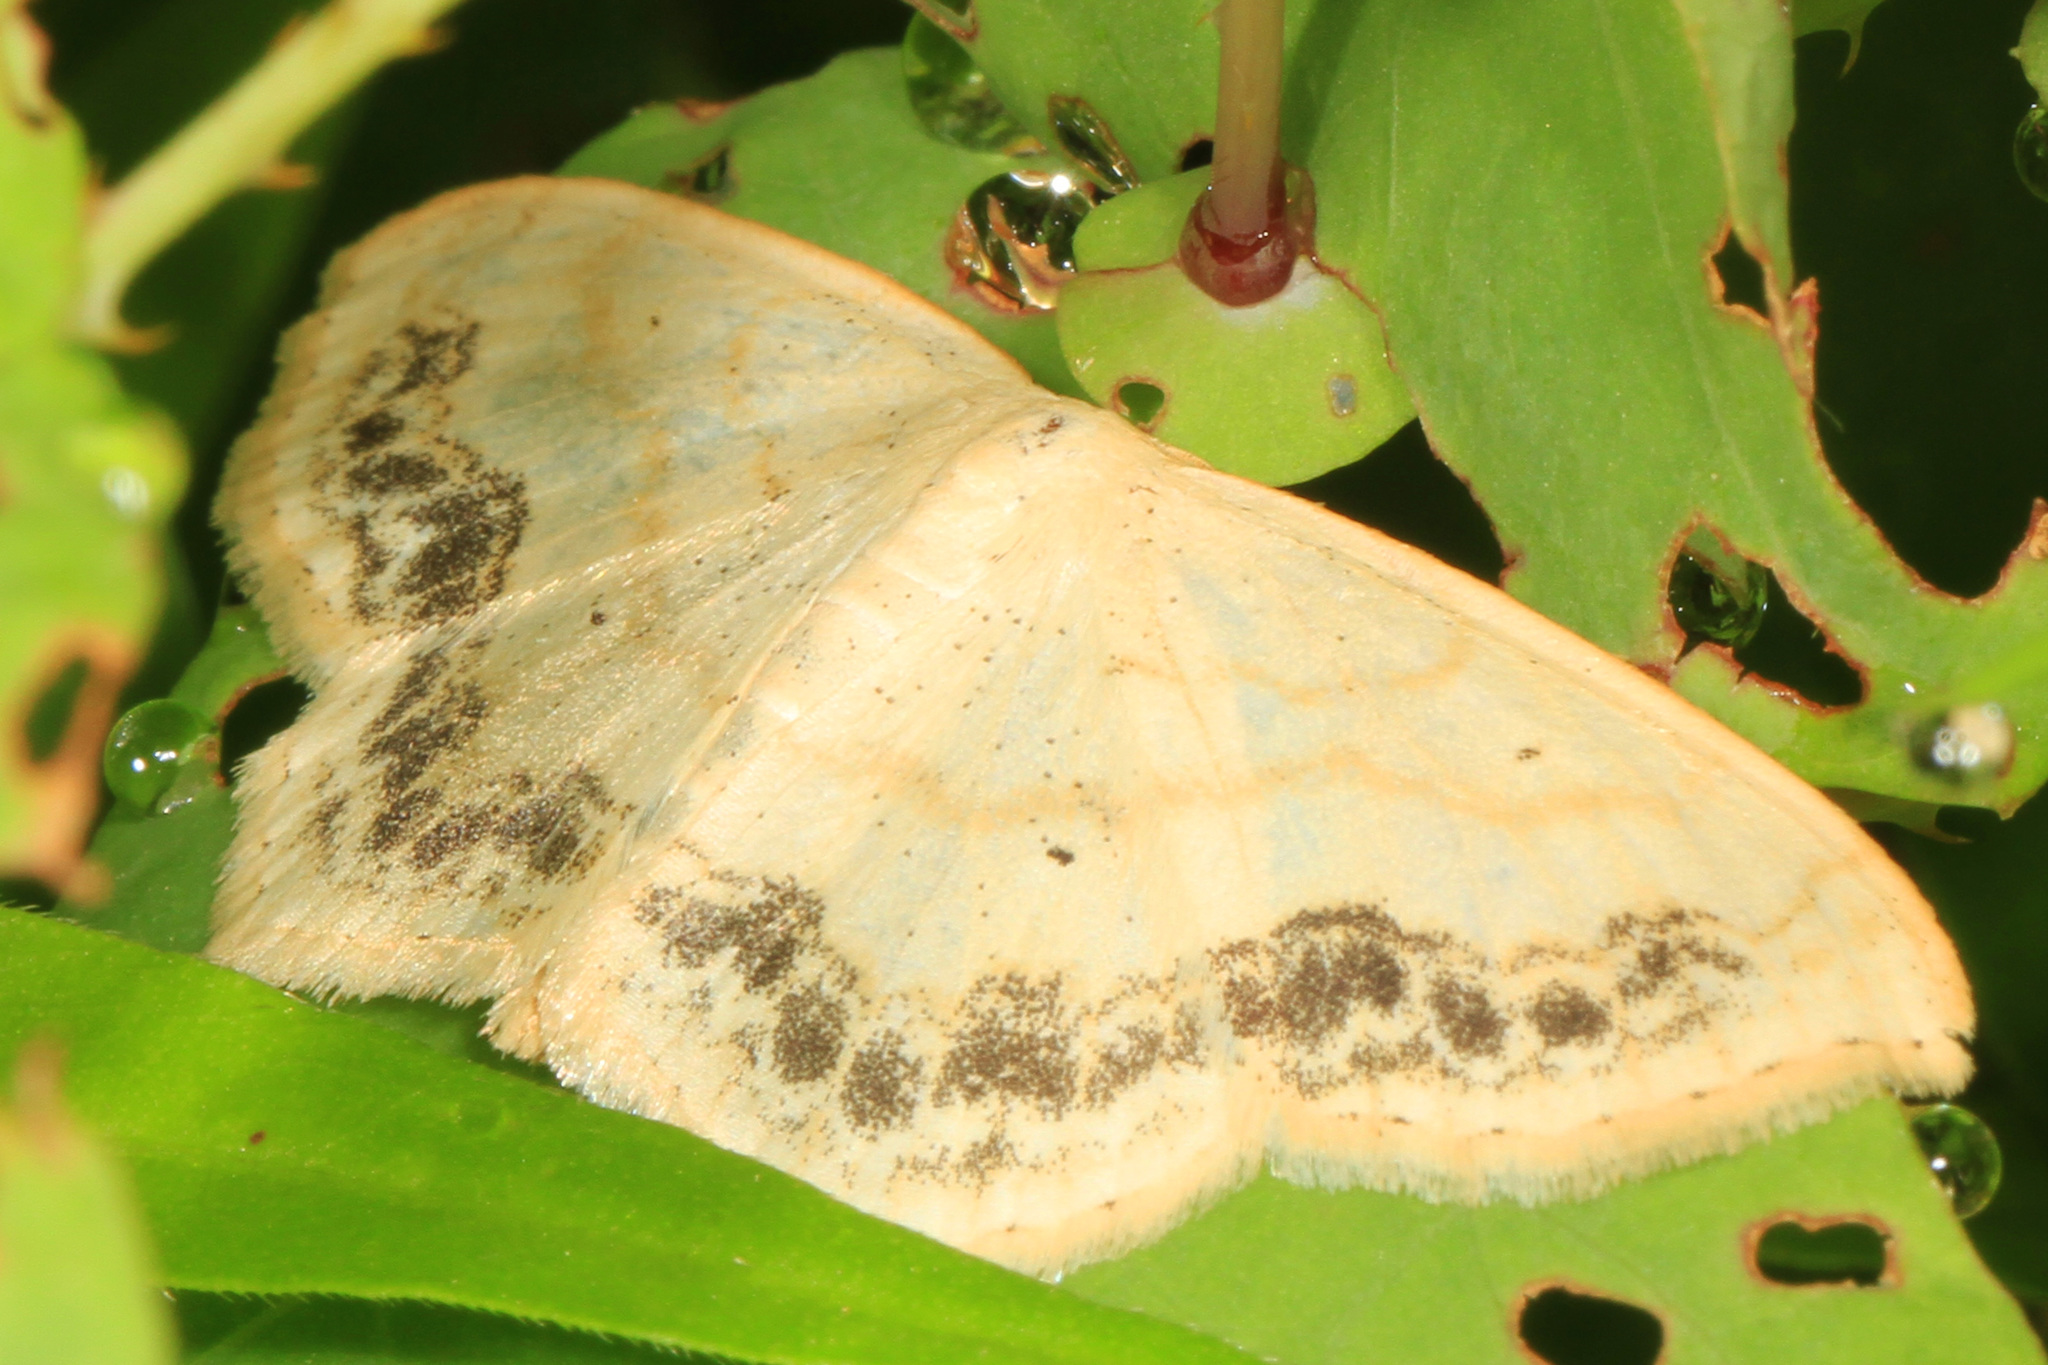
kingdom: Animalia
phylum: Arthropoda
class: Insecta
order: Lepidoptera
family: Geometridae
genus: Scopula
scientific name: Scopula limboundata
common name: Large lace border
